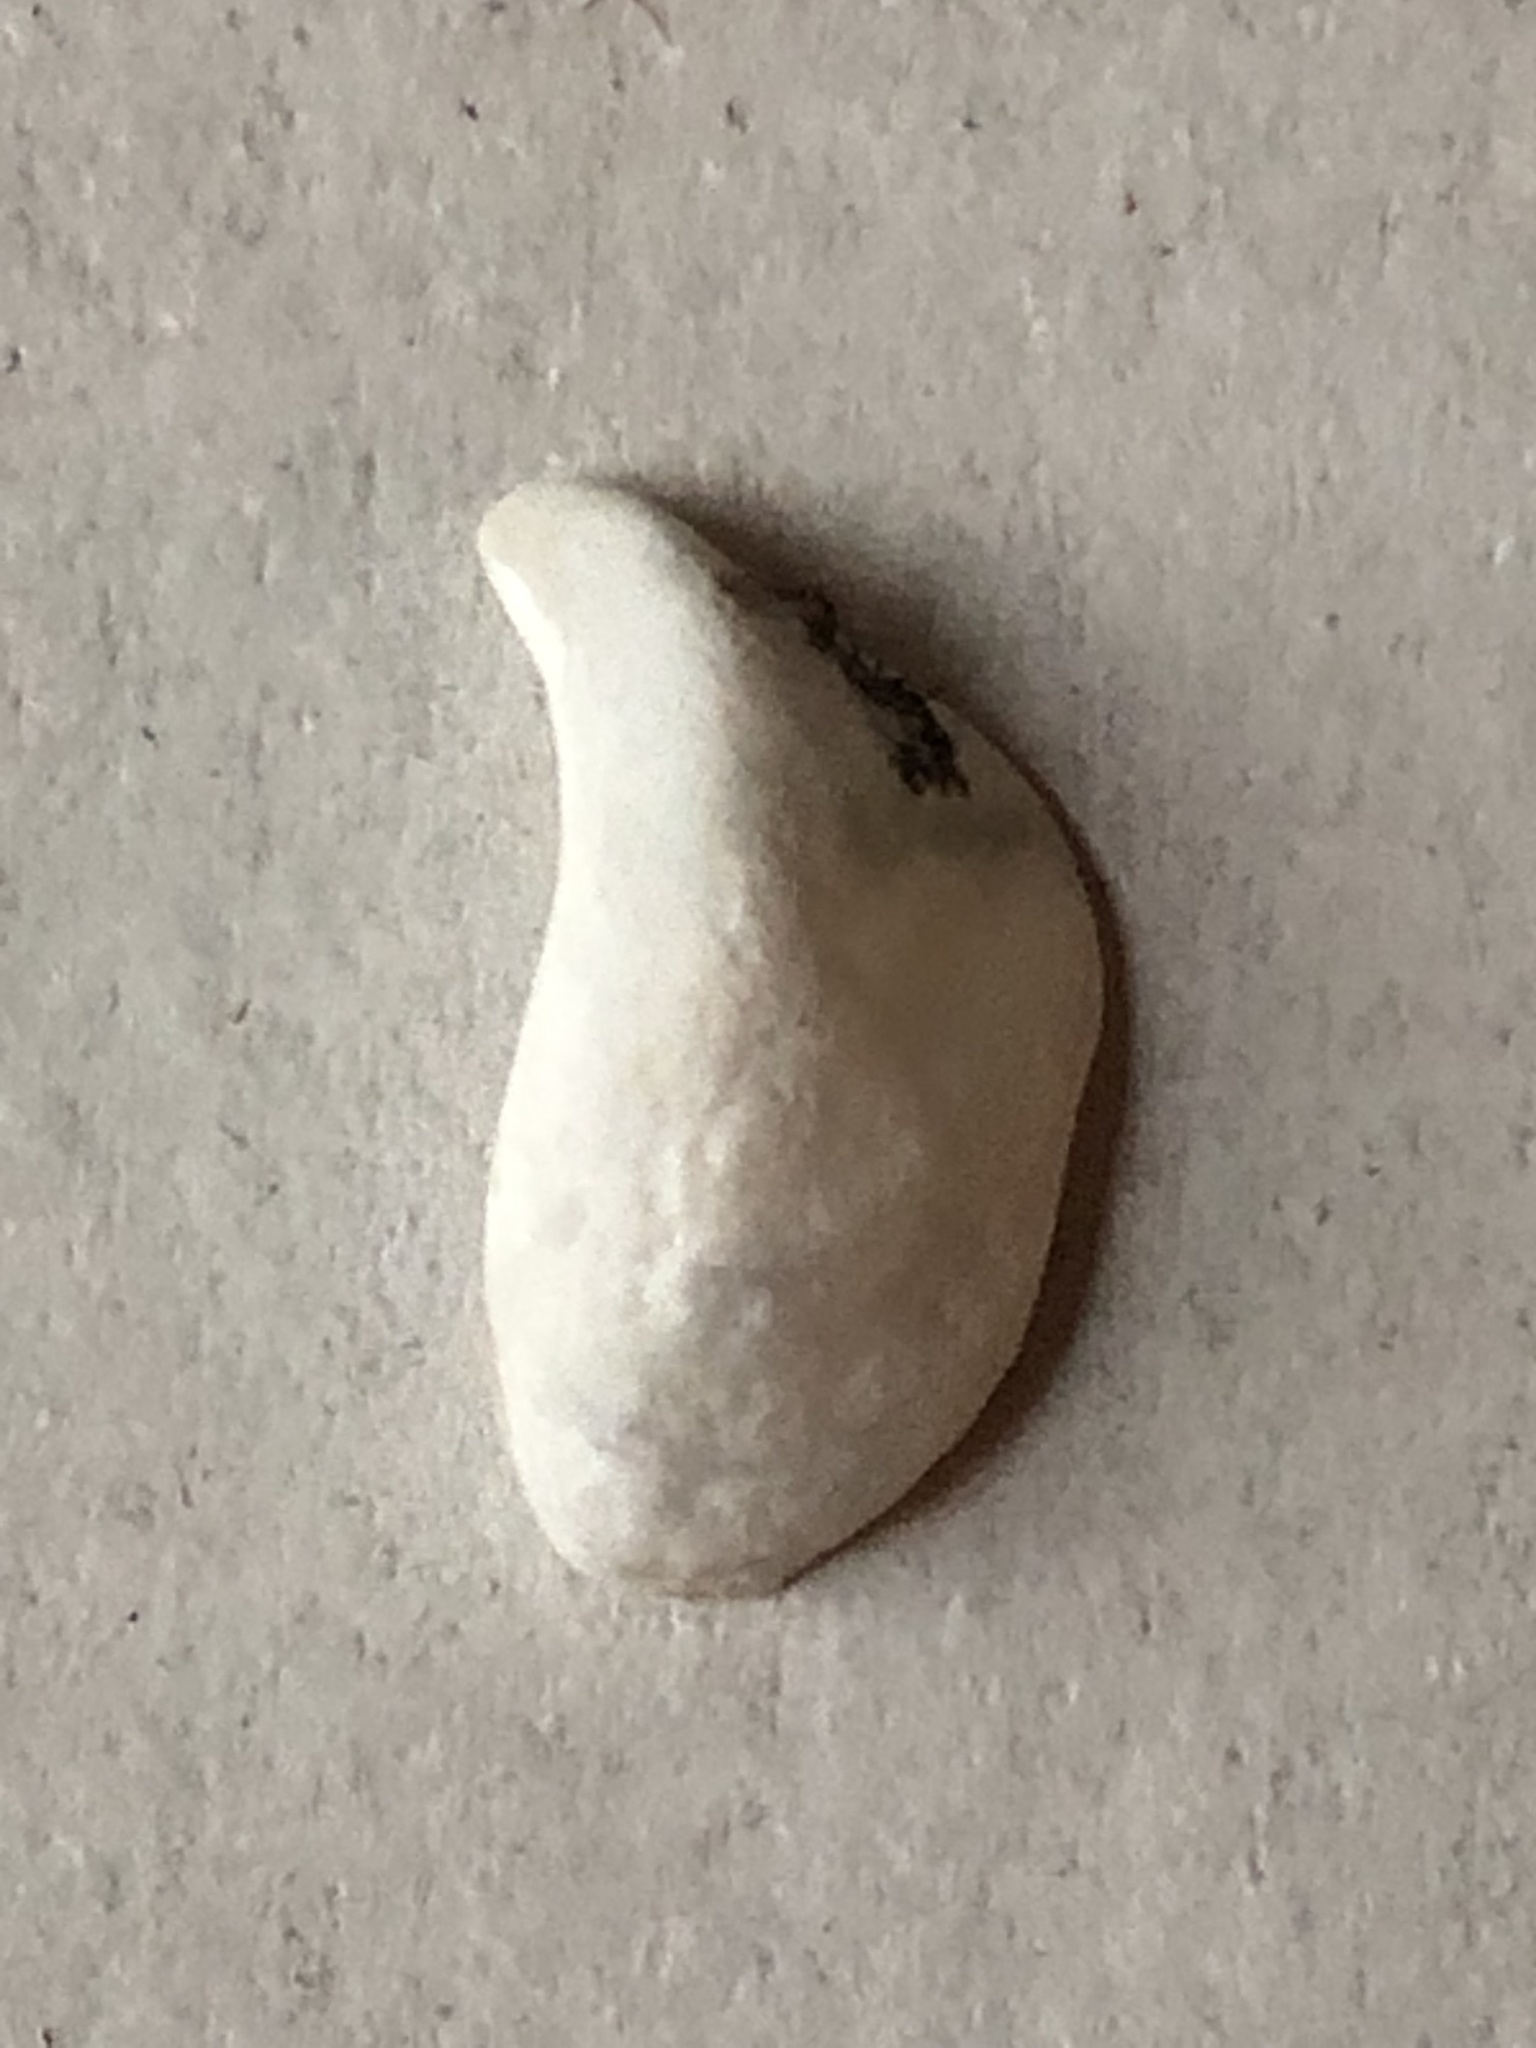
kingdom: Animalia
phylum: Mollusca
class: Bivalvia
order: Myida
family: Dreissenidae
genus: Dreissena
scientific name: Dreissena bugensis
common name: Quagga mussel
